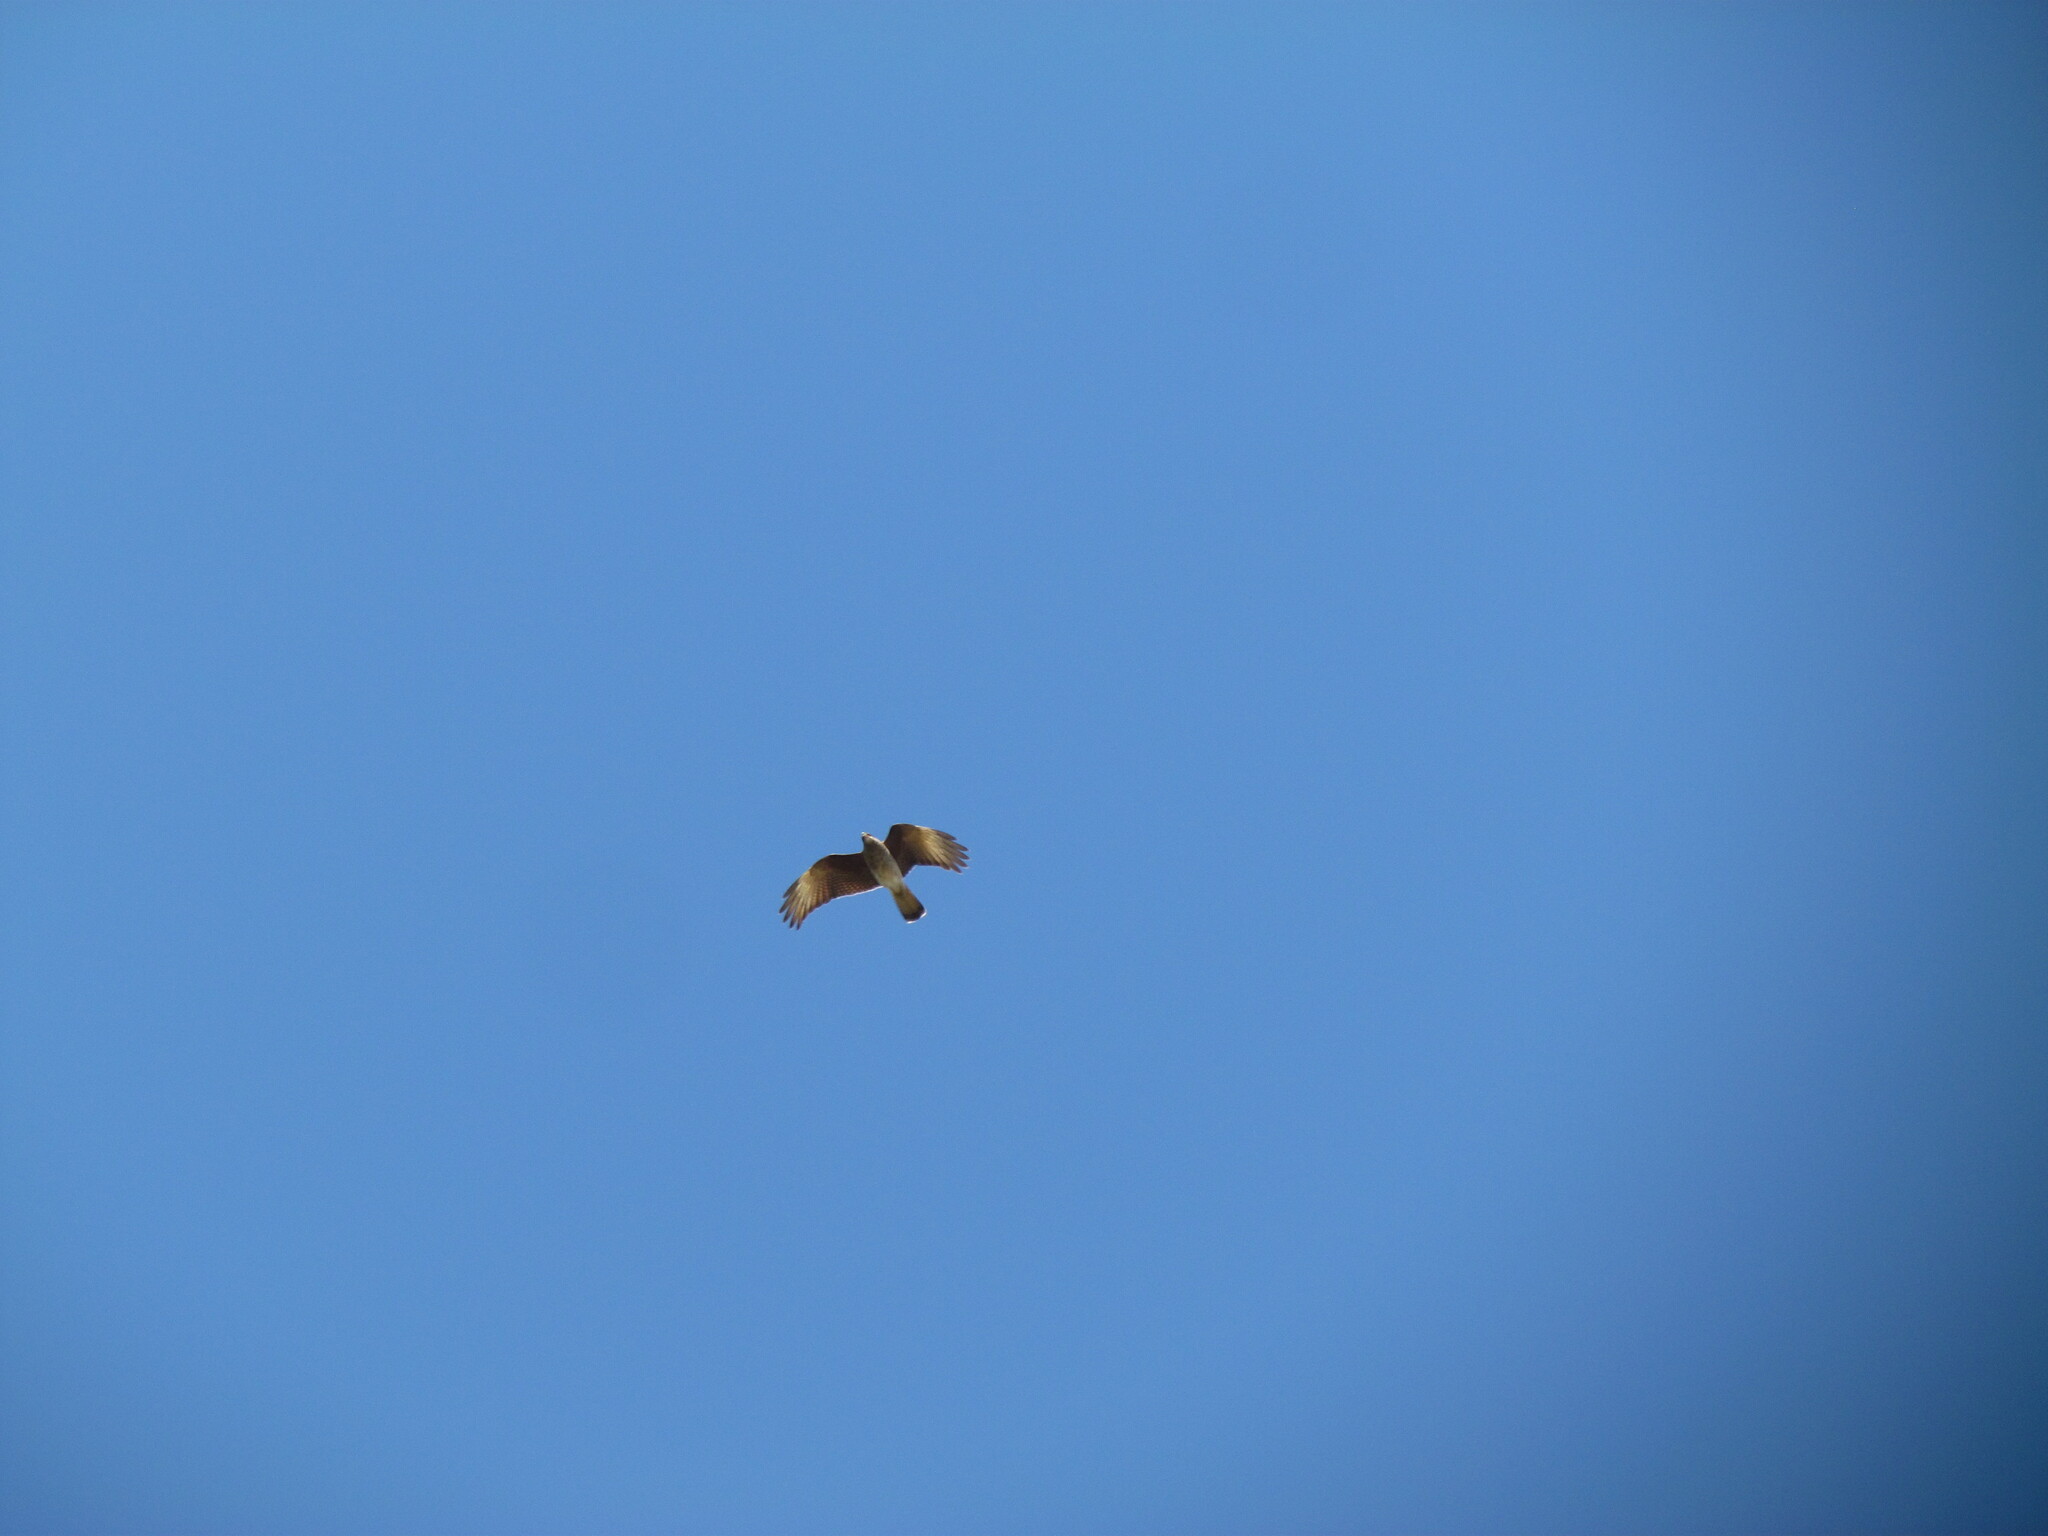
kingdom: Animalia
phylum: Chordata
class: Aves
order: Falconiformes
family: Falconidae
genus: Daptrius
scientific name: Daptrius
